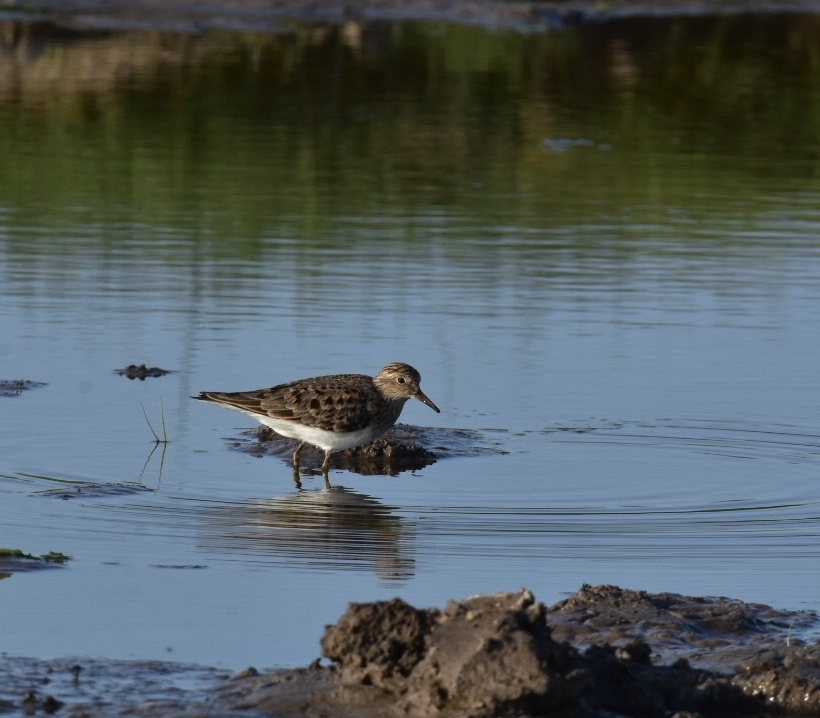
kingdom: Animalia
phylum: Chordata
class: Aves
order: Charadriiformes
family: Scolopacidae
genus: Calidris
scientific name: Calidris temminckii
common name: Temminck's stint
